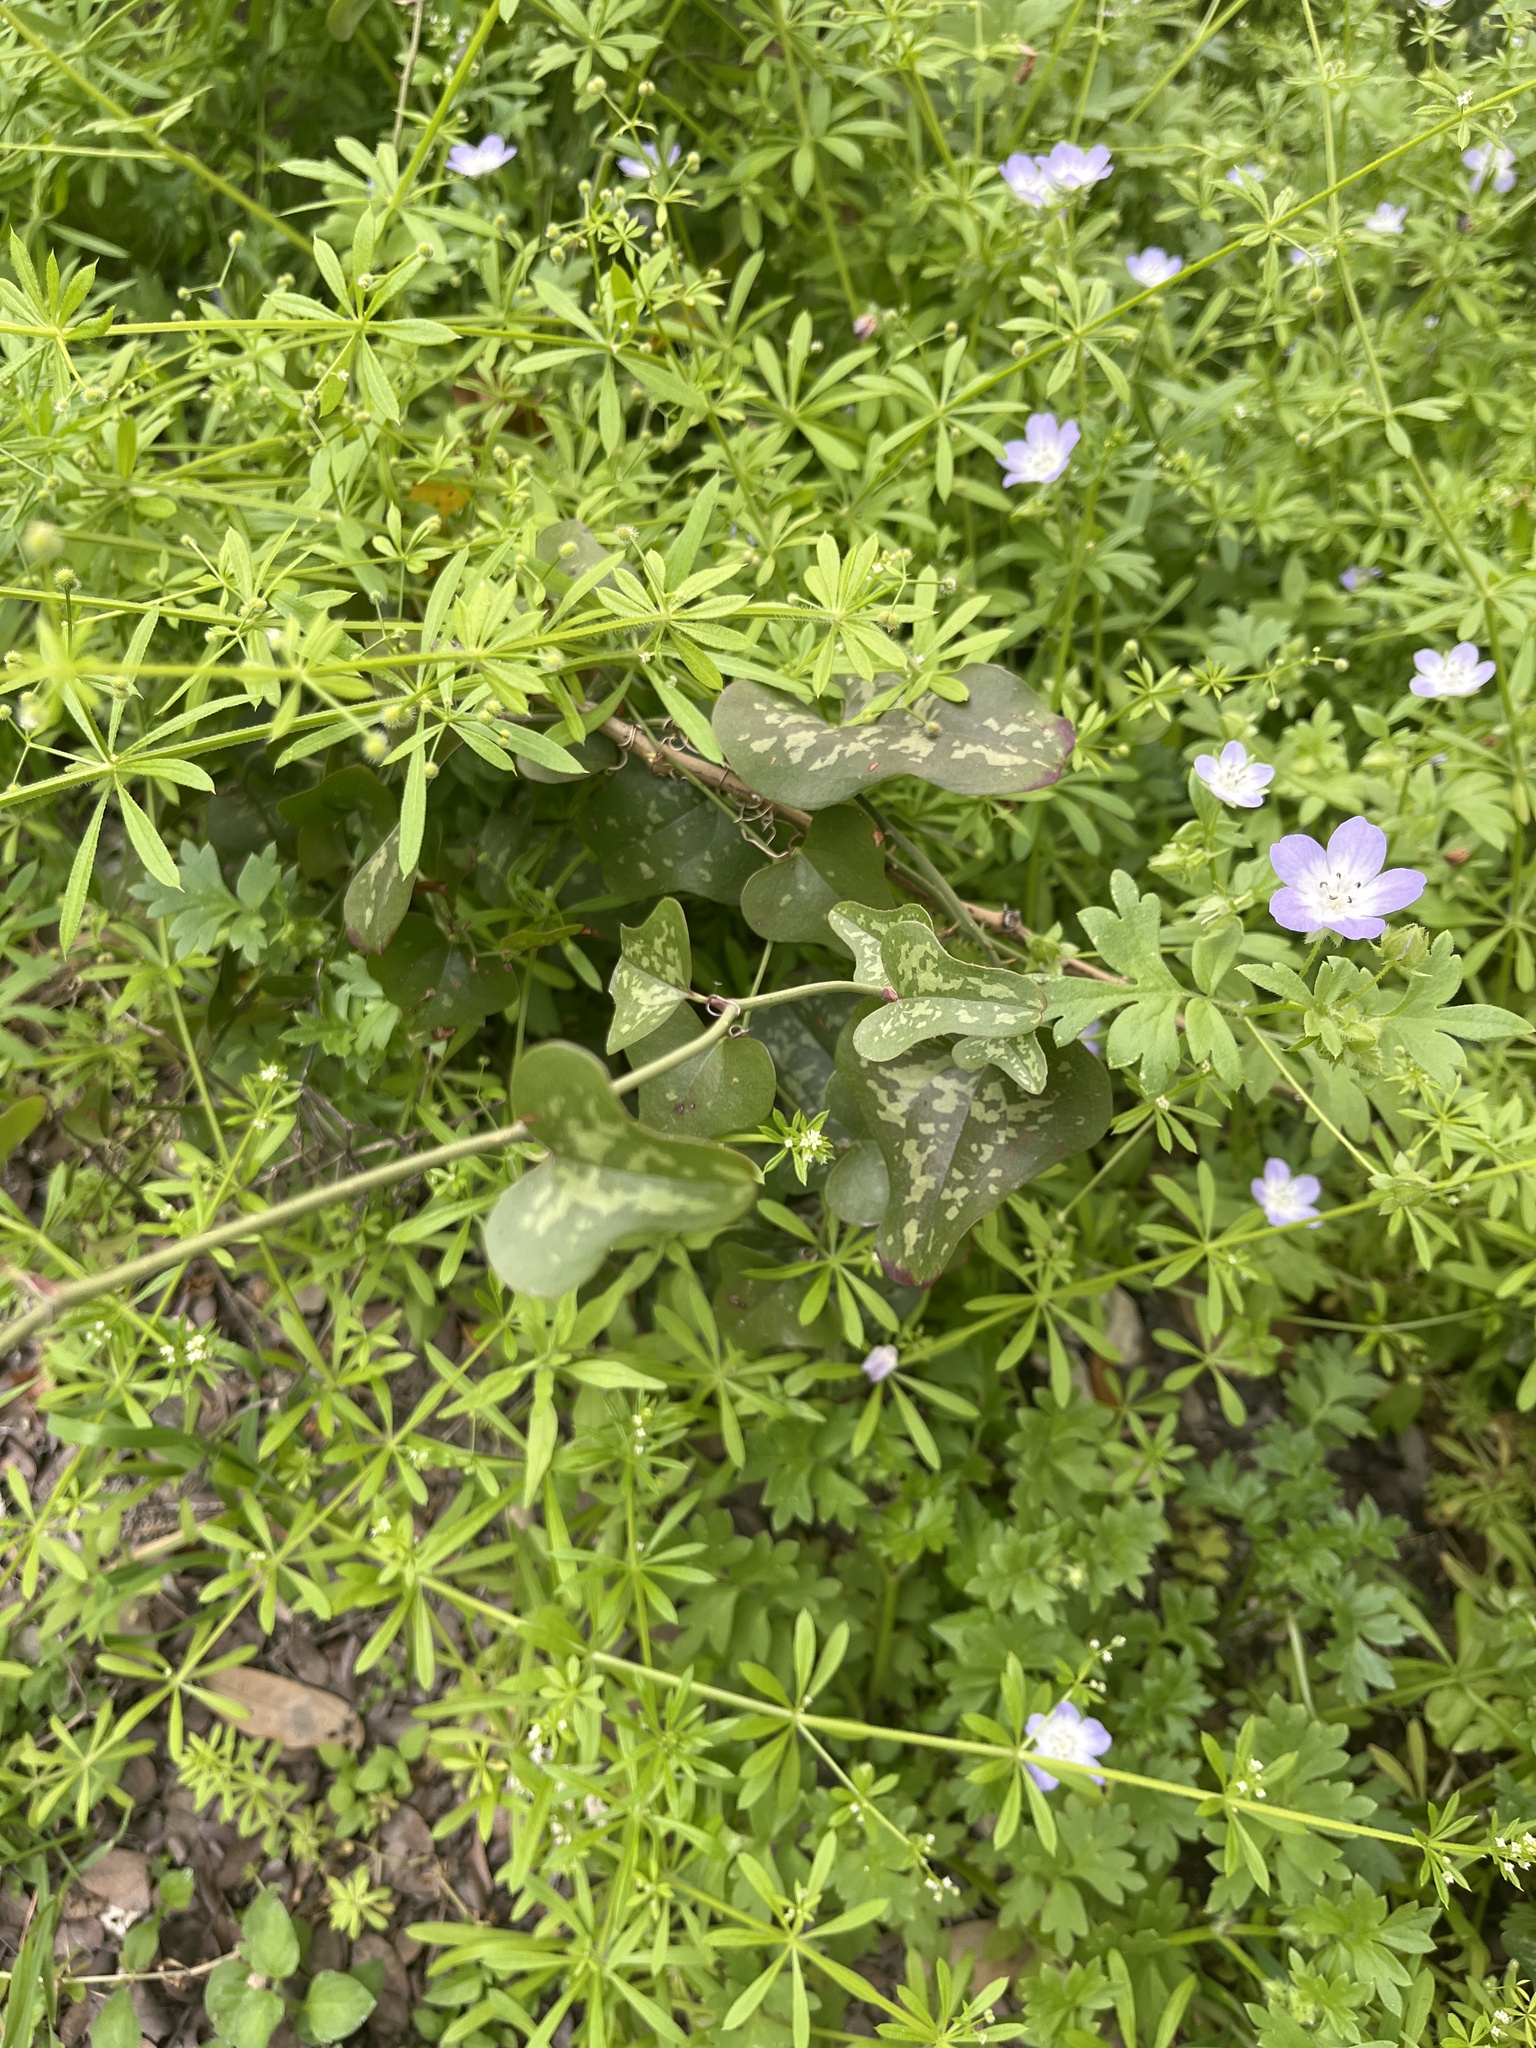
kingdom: Plantae
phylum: Tracheophyta
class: Liliopsida
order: Liliales
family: Smilacaceae
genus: Smilax
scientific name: Smilax bona-nox
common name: Catbrier
